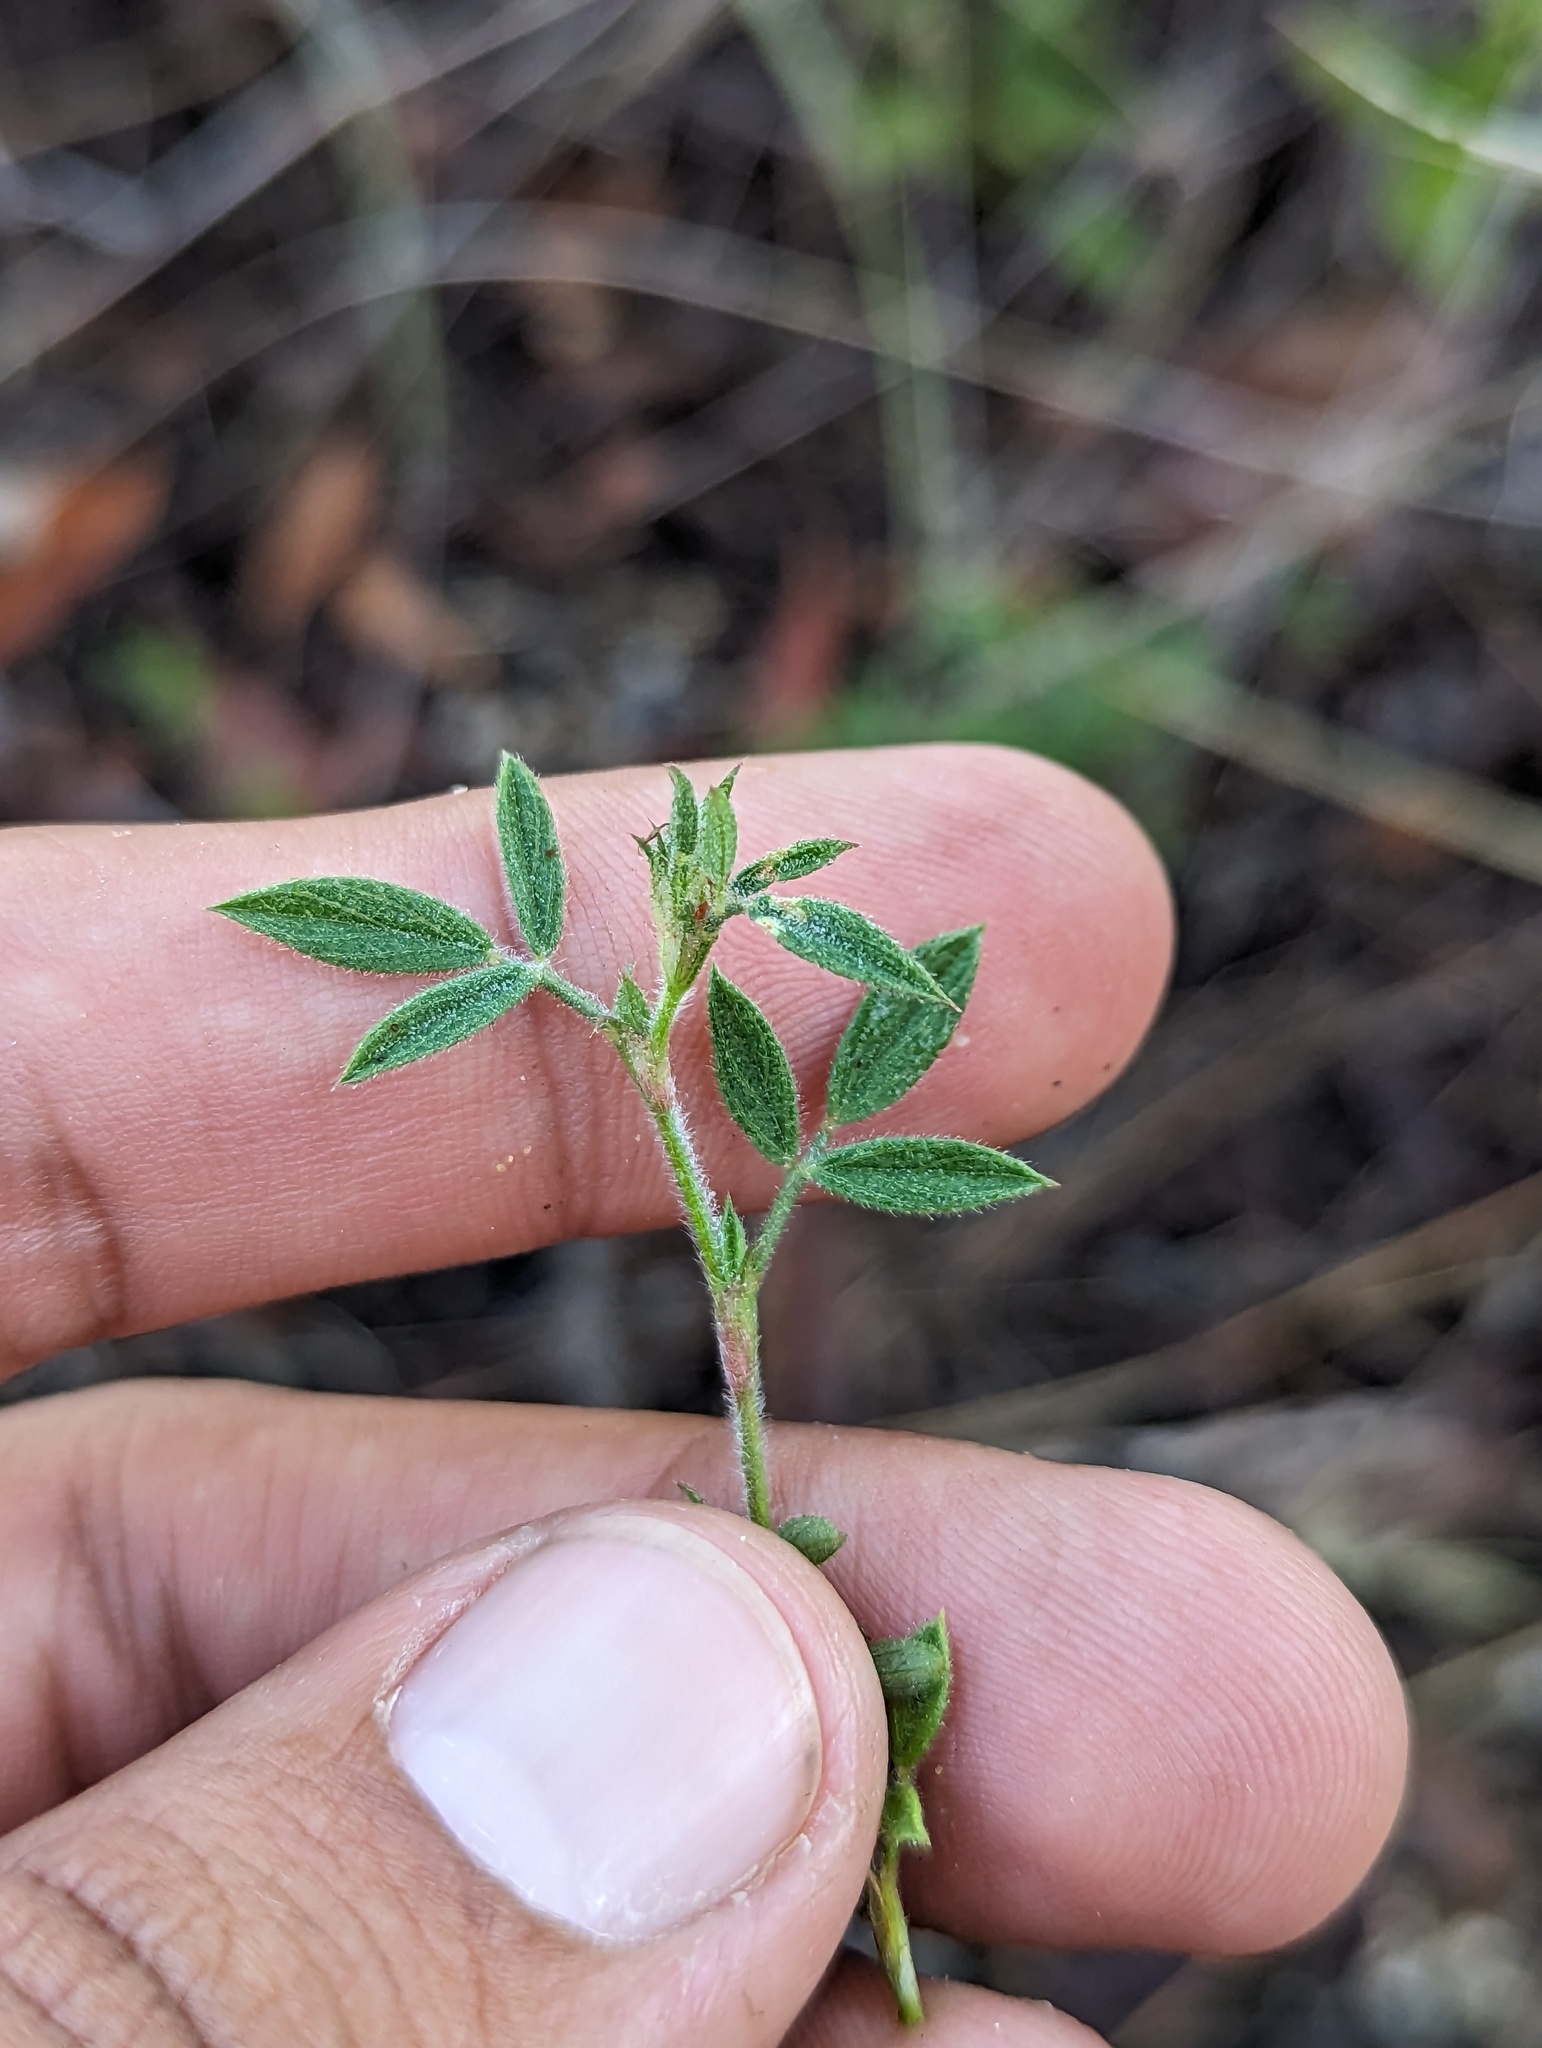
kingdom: Plantae
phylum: Tracheophyta
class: Magnoliopsida
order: Fabales
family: Fabaceae
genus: Stylosanthes
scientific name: Stylosanthes viscosa
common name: Viscid pencil-flower
